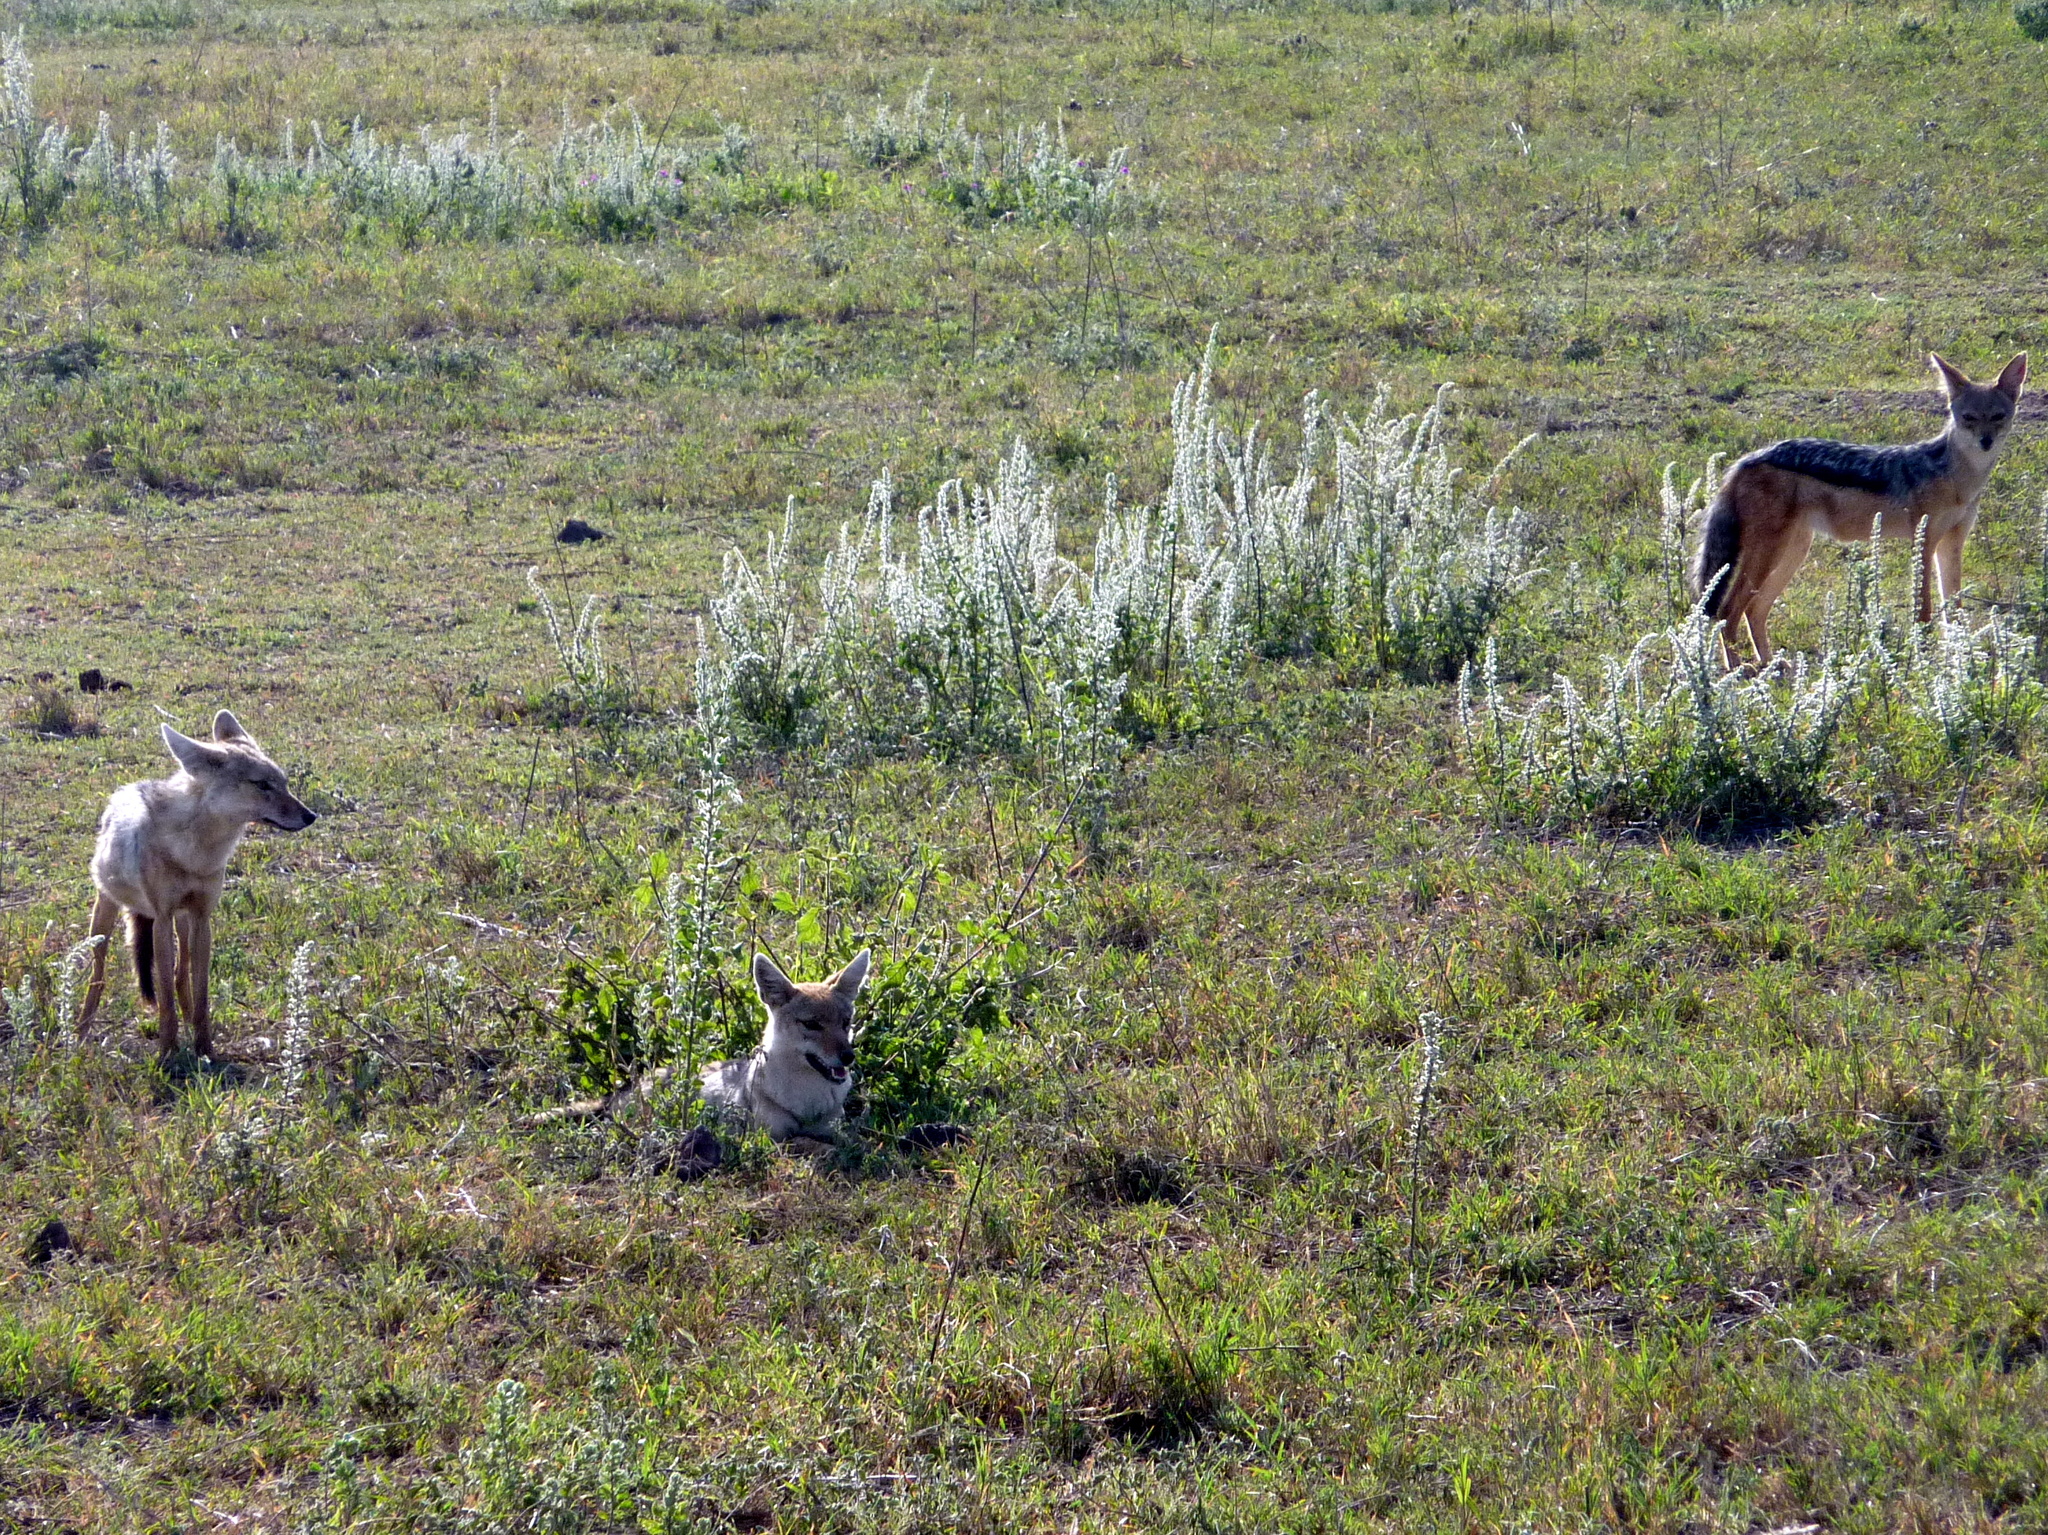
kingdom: Animalia
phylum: Chordata
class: Mammalia
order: Carnivora
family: Canidae
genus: Lupulella
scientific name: Lupulella
